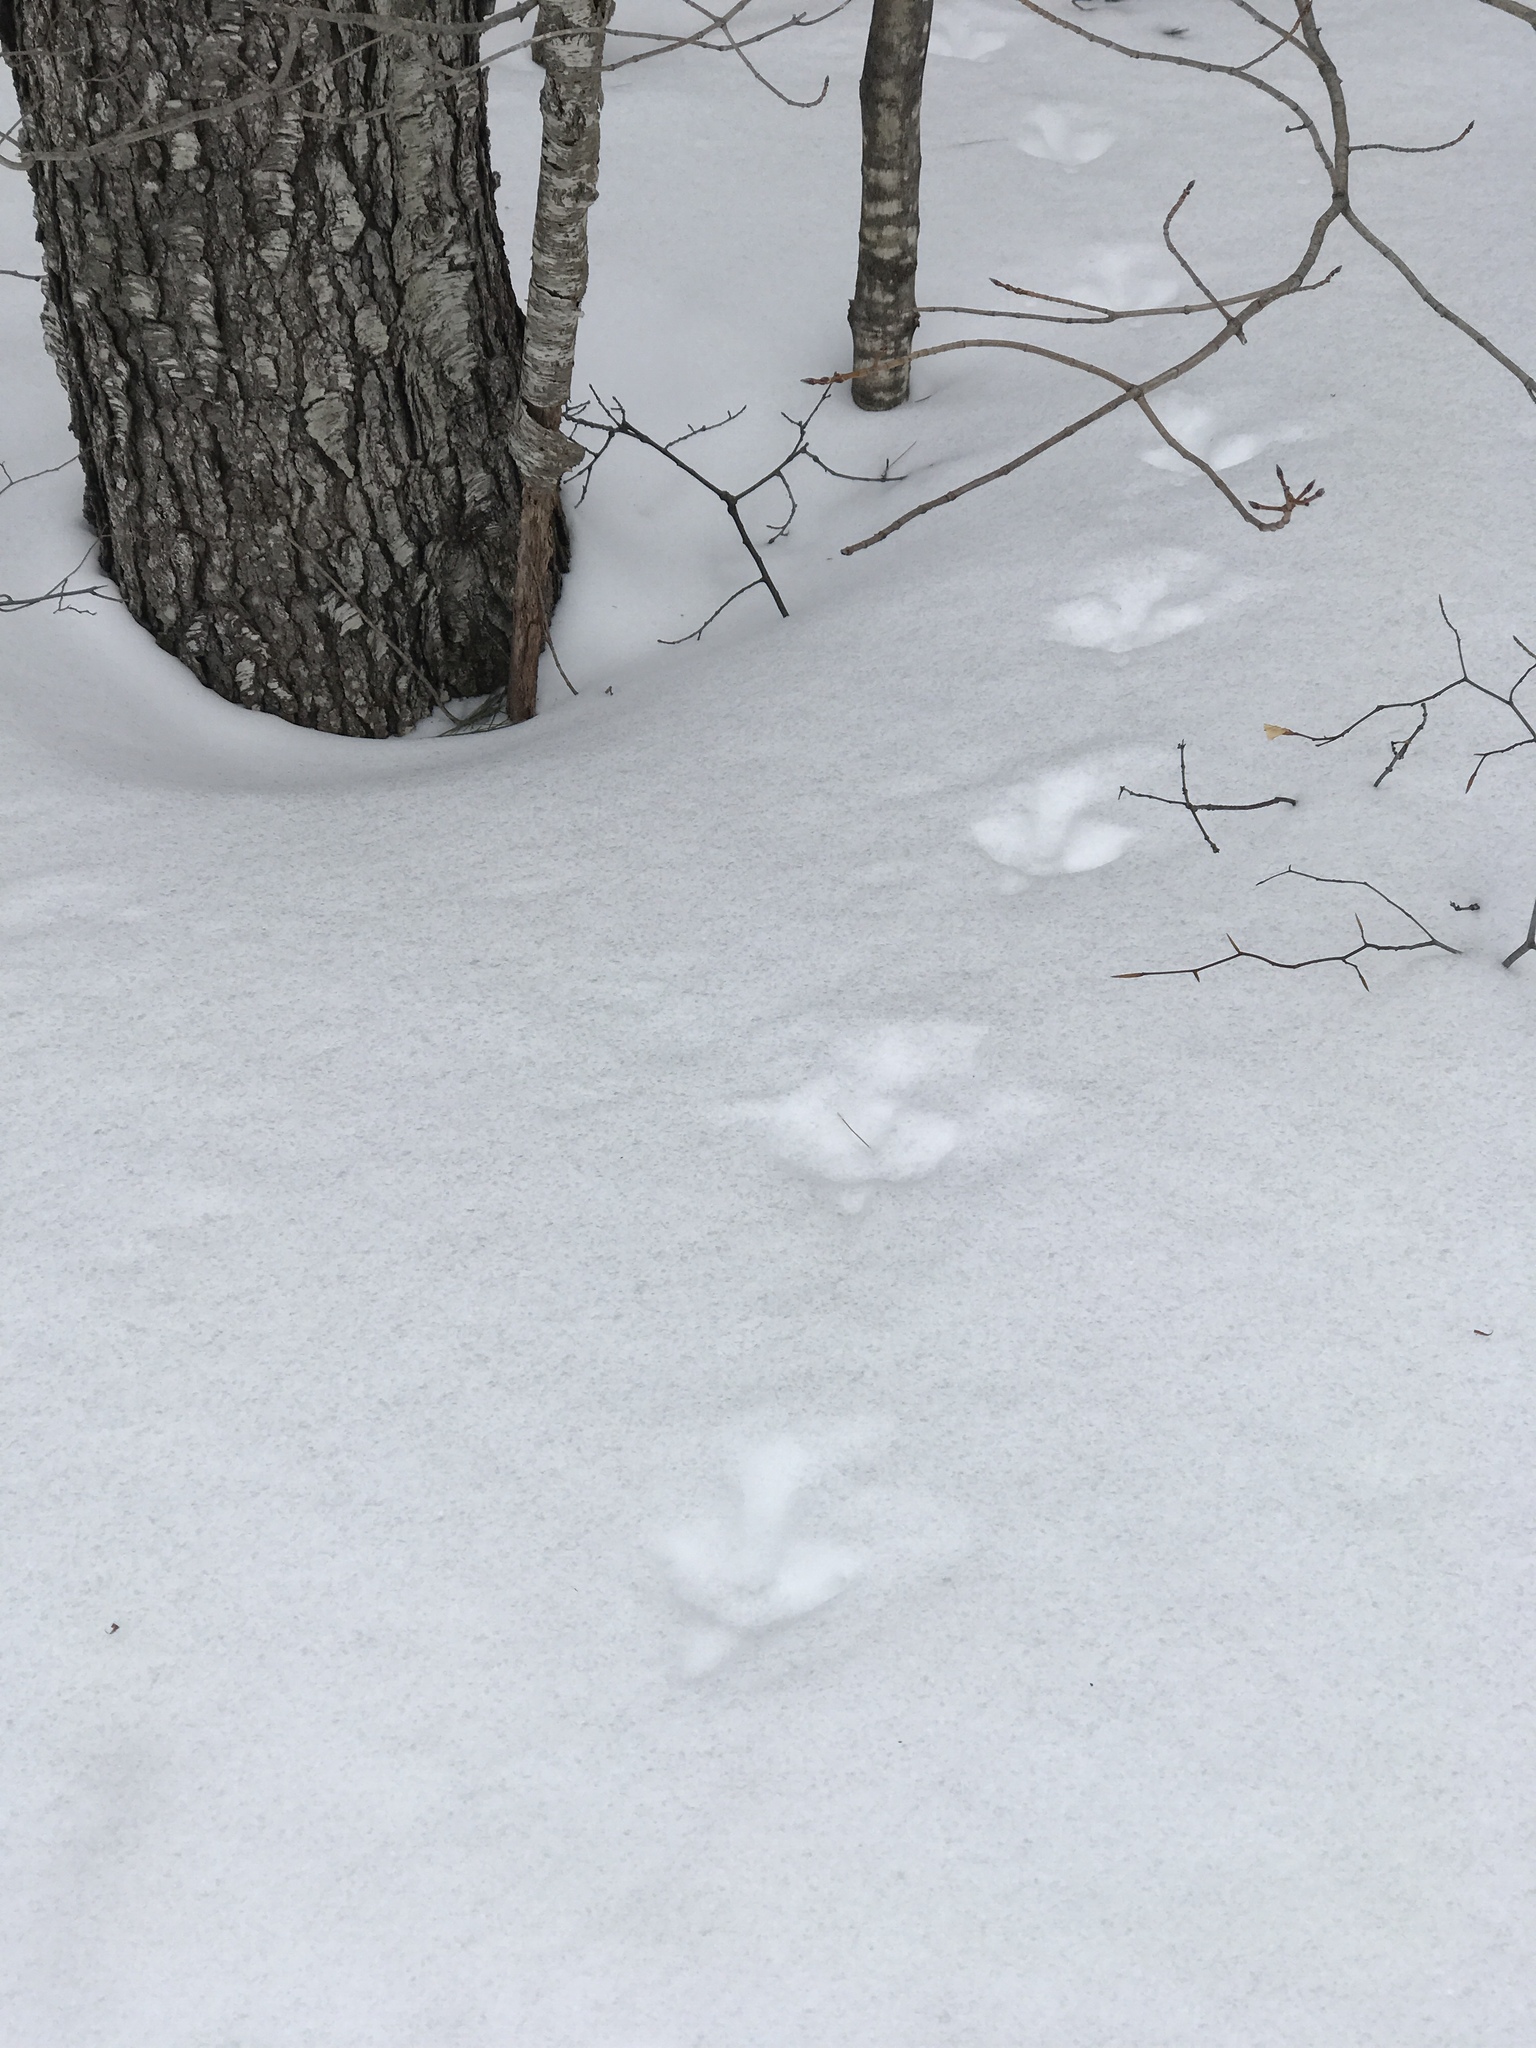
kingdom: Animalia
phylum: Chordata
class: Aves
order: Galliformes
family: Phasianidae
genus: Meleagris
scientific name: Meleagris gallopavo
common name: Wild turkey
